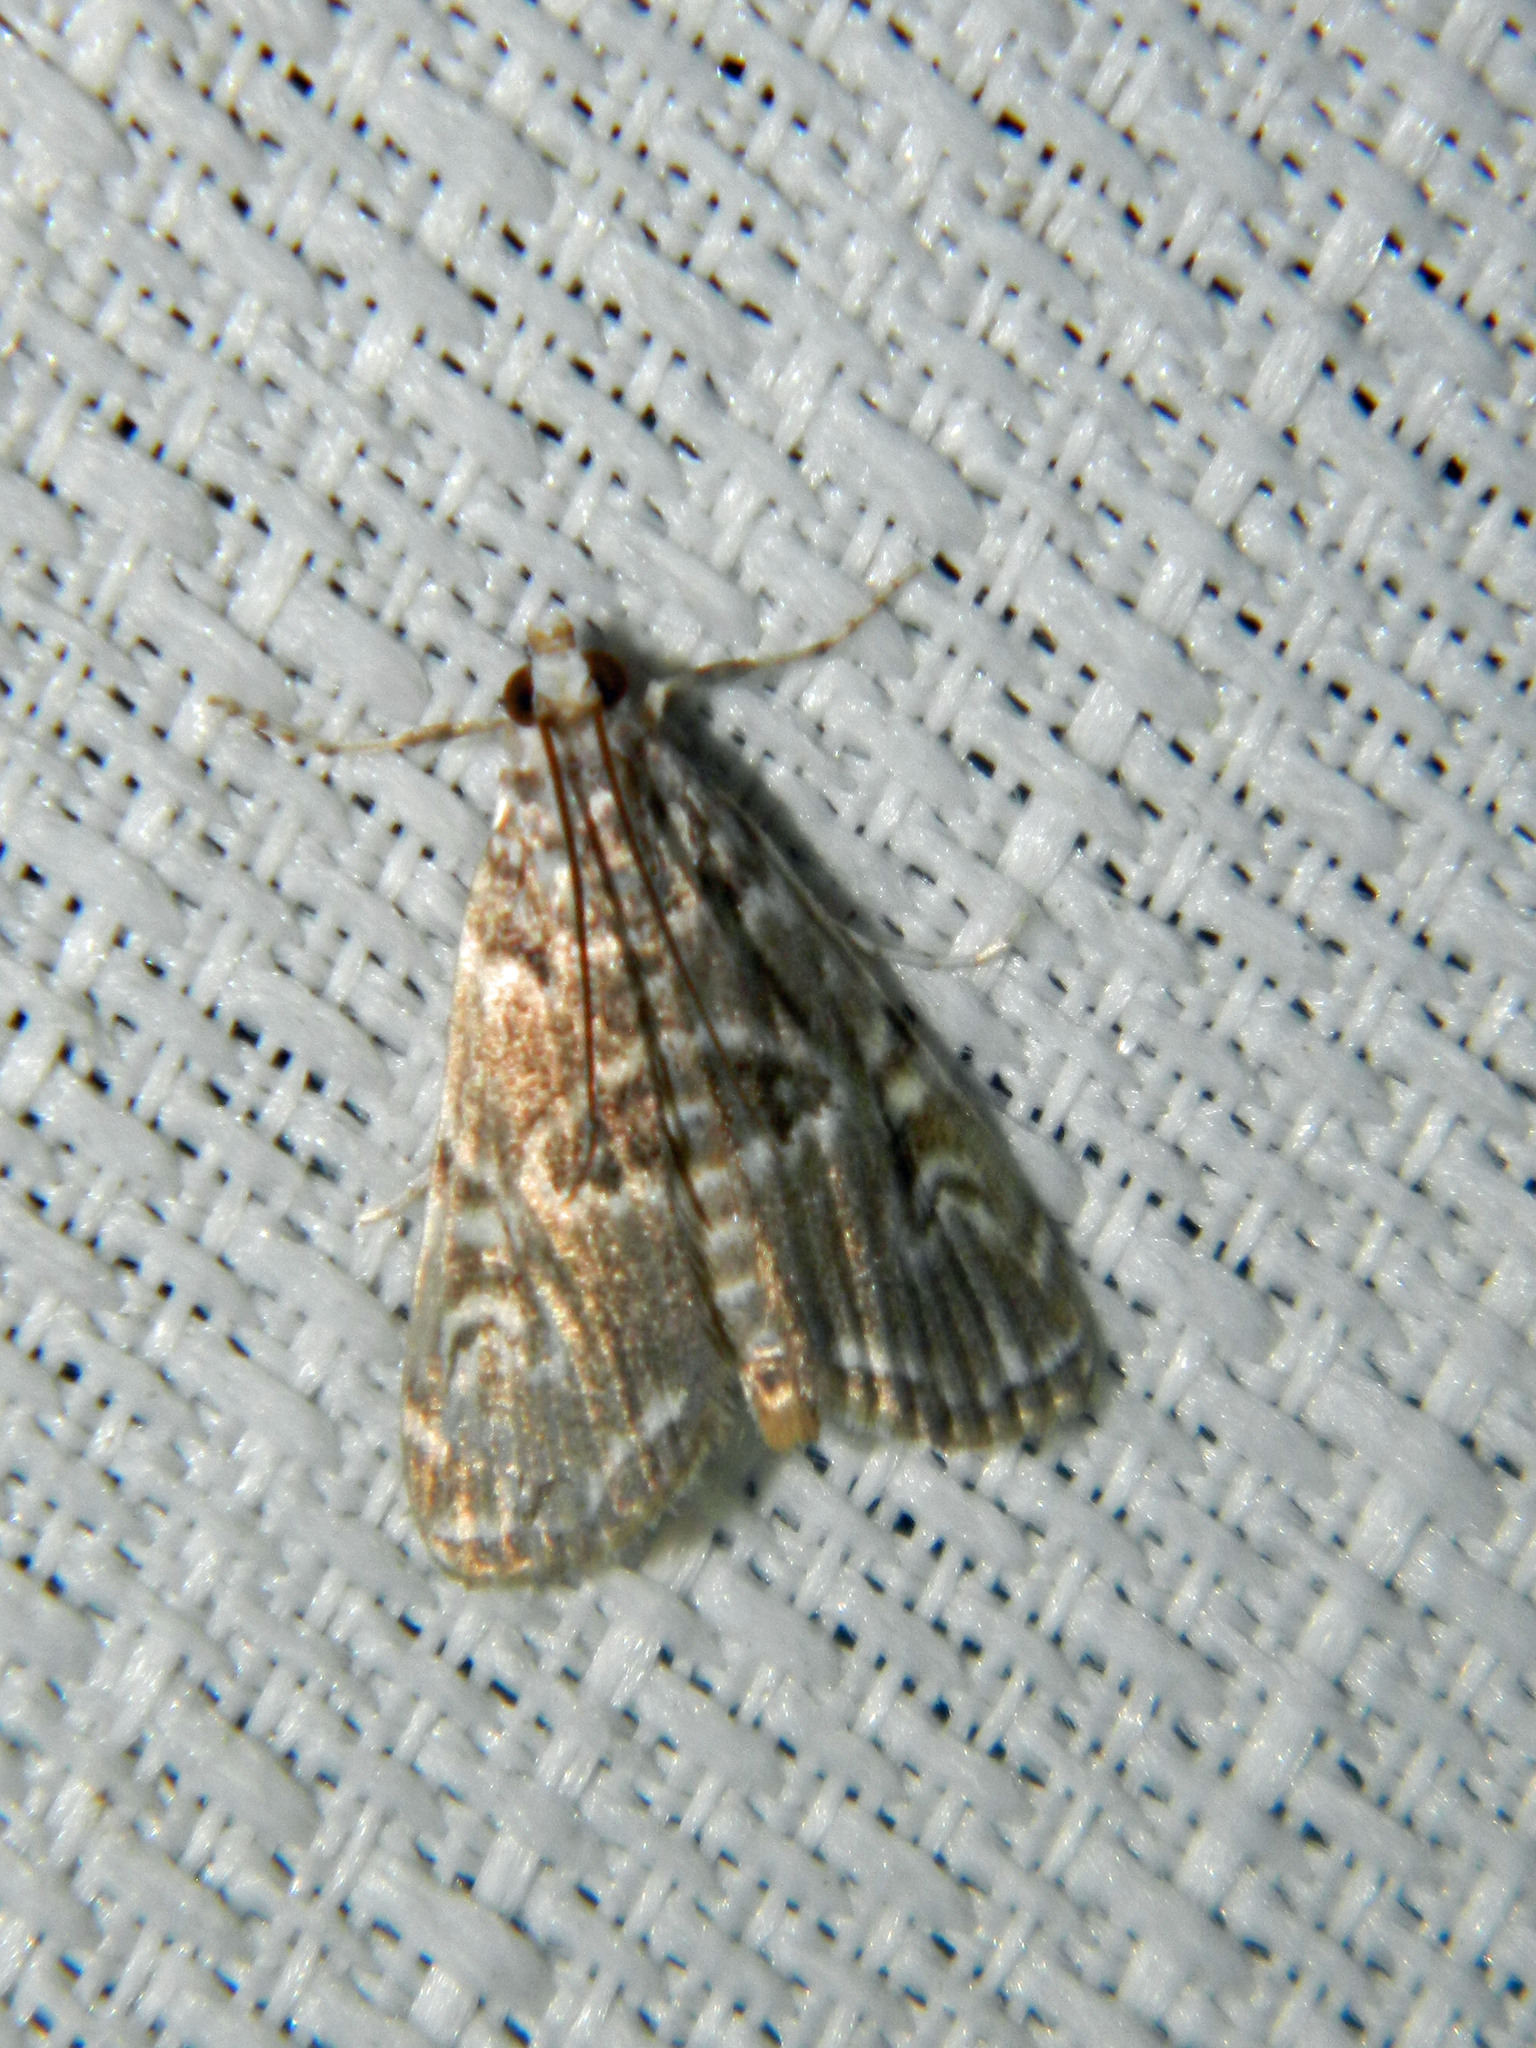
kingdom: Animalia
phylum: Arthropoda
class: Insecta
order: Lepidoptera
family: Crambidae
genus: Elophila
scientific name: Elophila gyralis
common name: Waterlily borer moth
